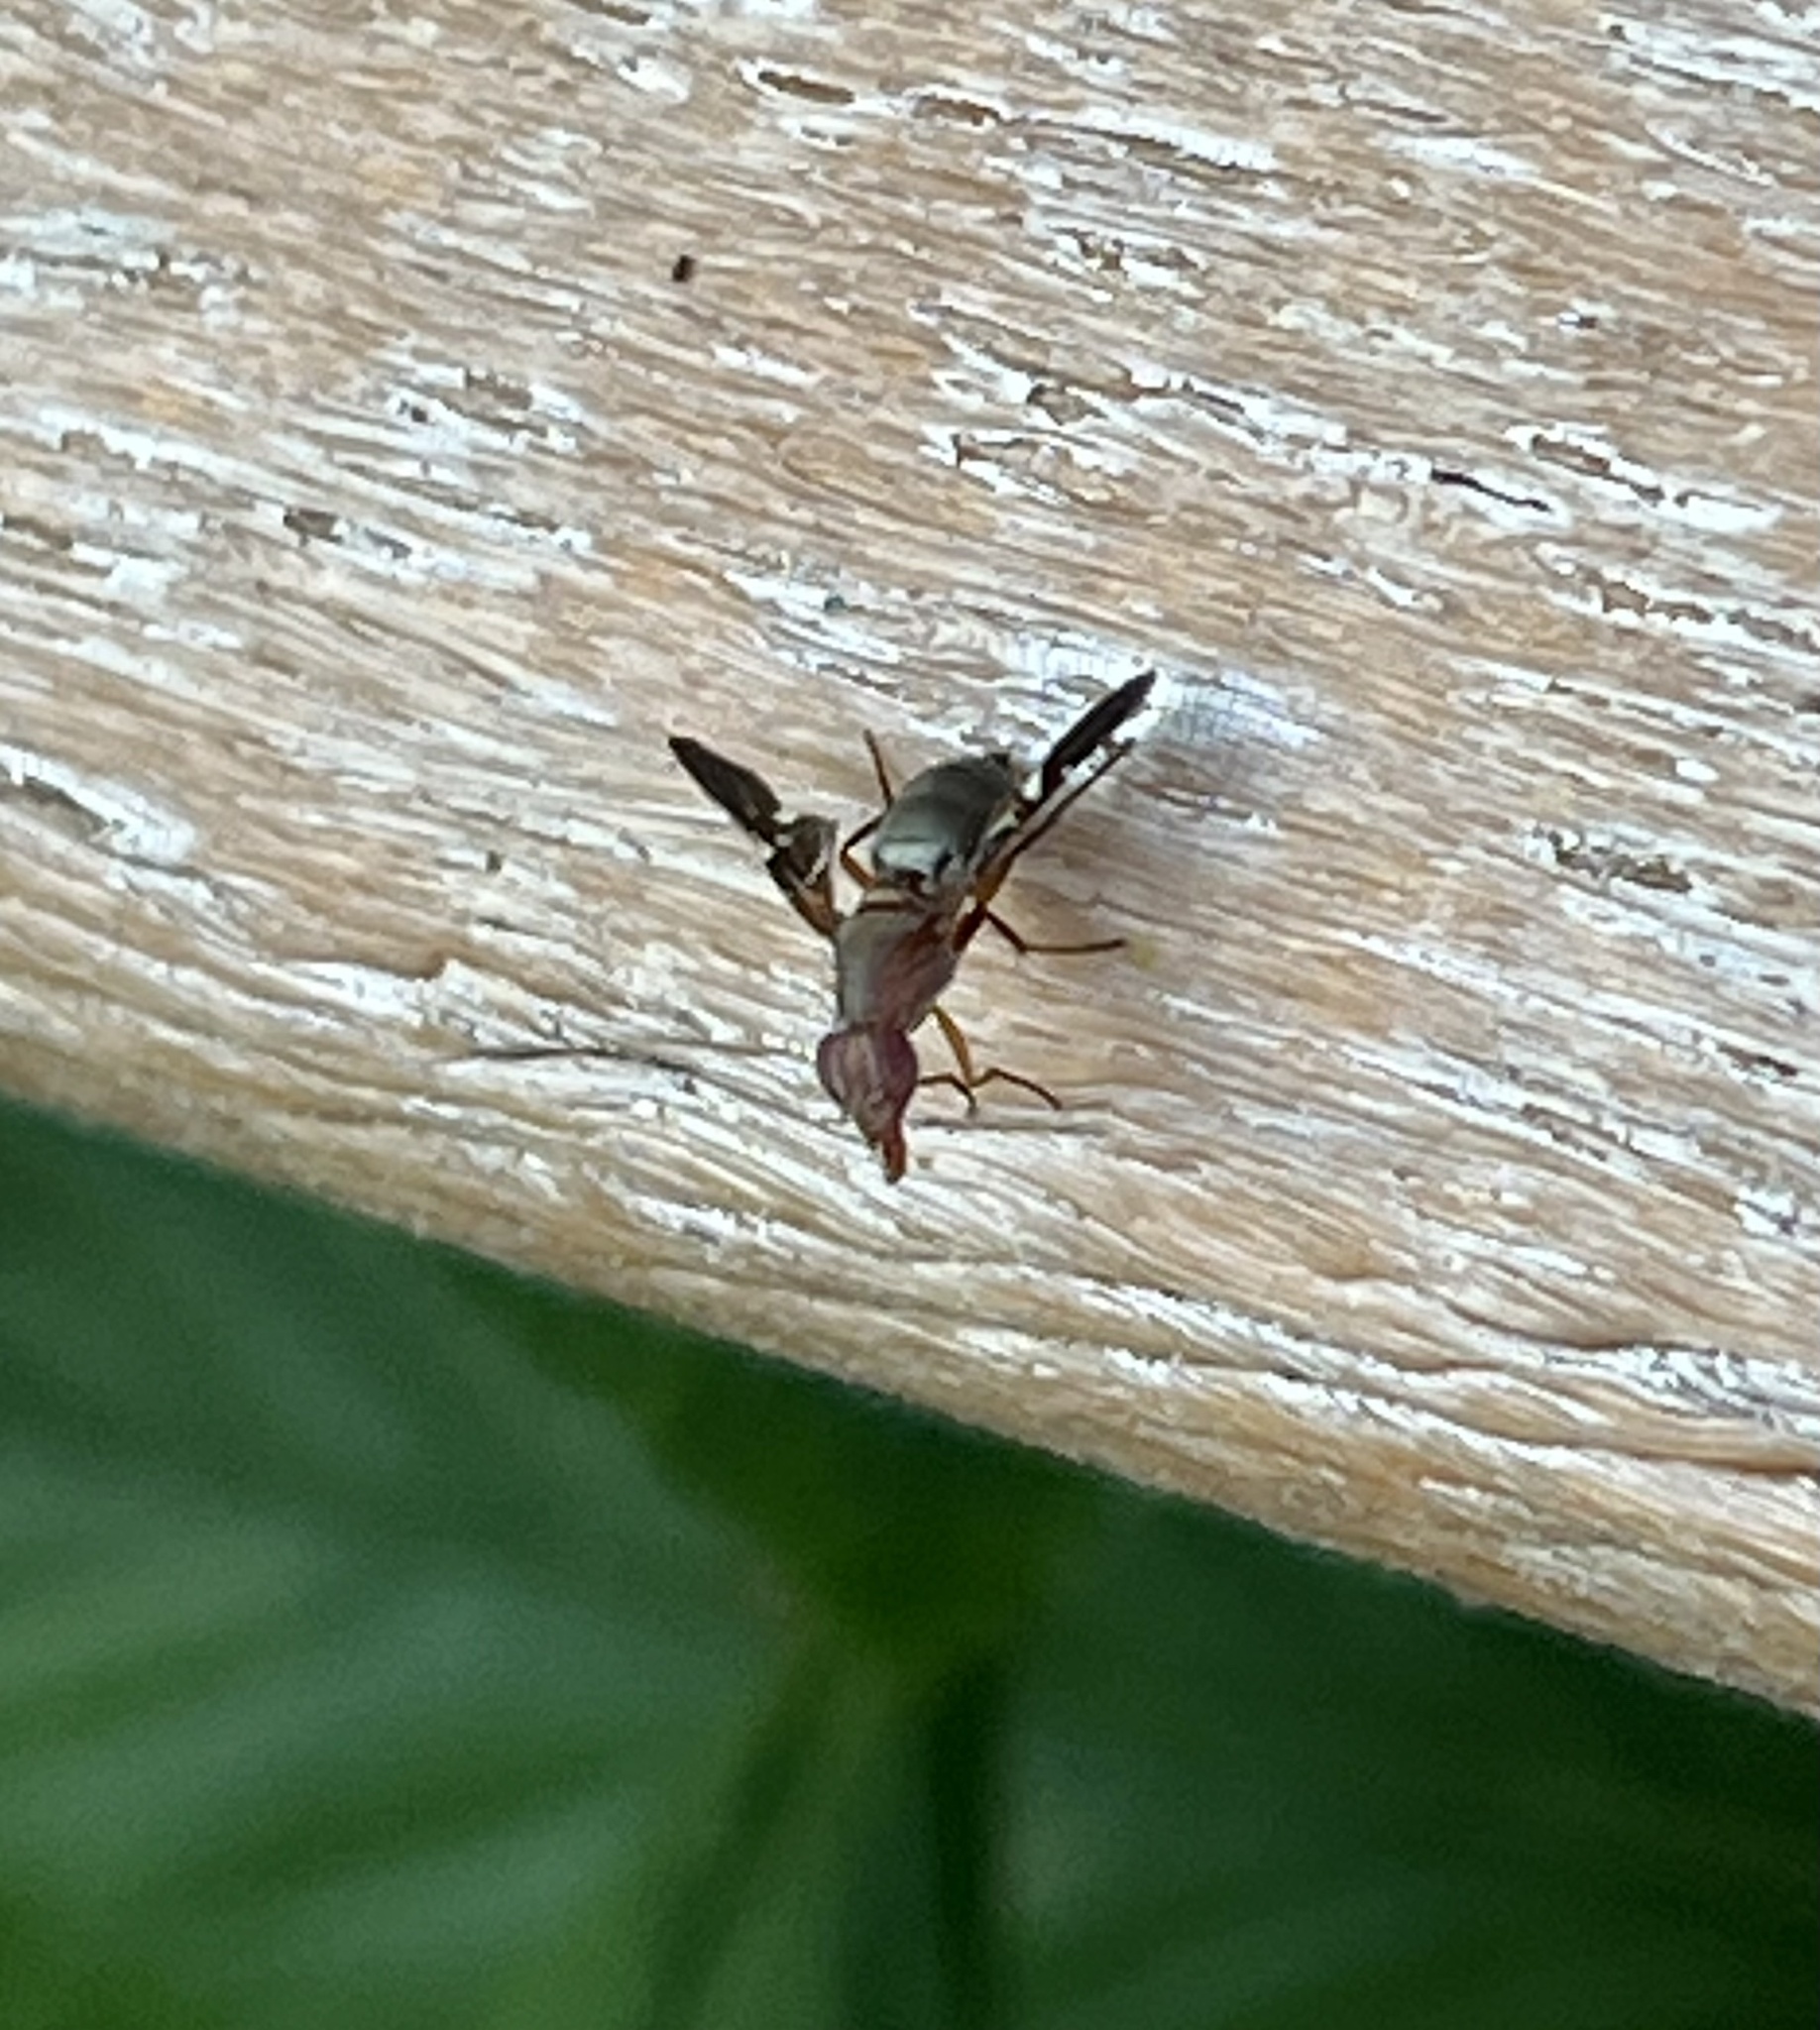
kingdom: Animalia
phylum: Arthropoda
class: Insecta
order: Diptera
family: Ulidiidae
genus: Delphinia
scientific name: Delphinia picta
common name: Common picture-winged fly
